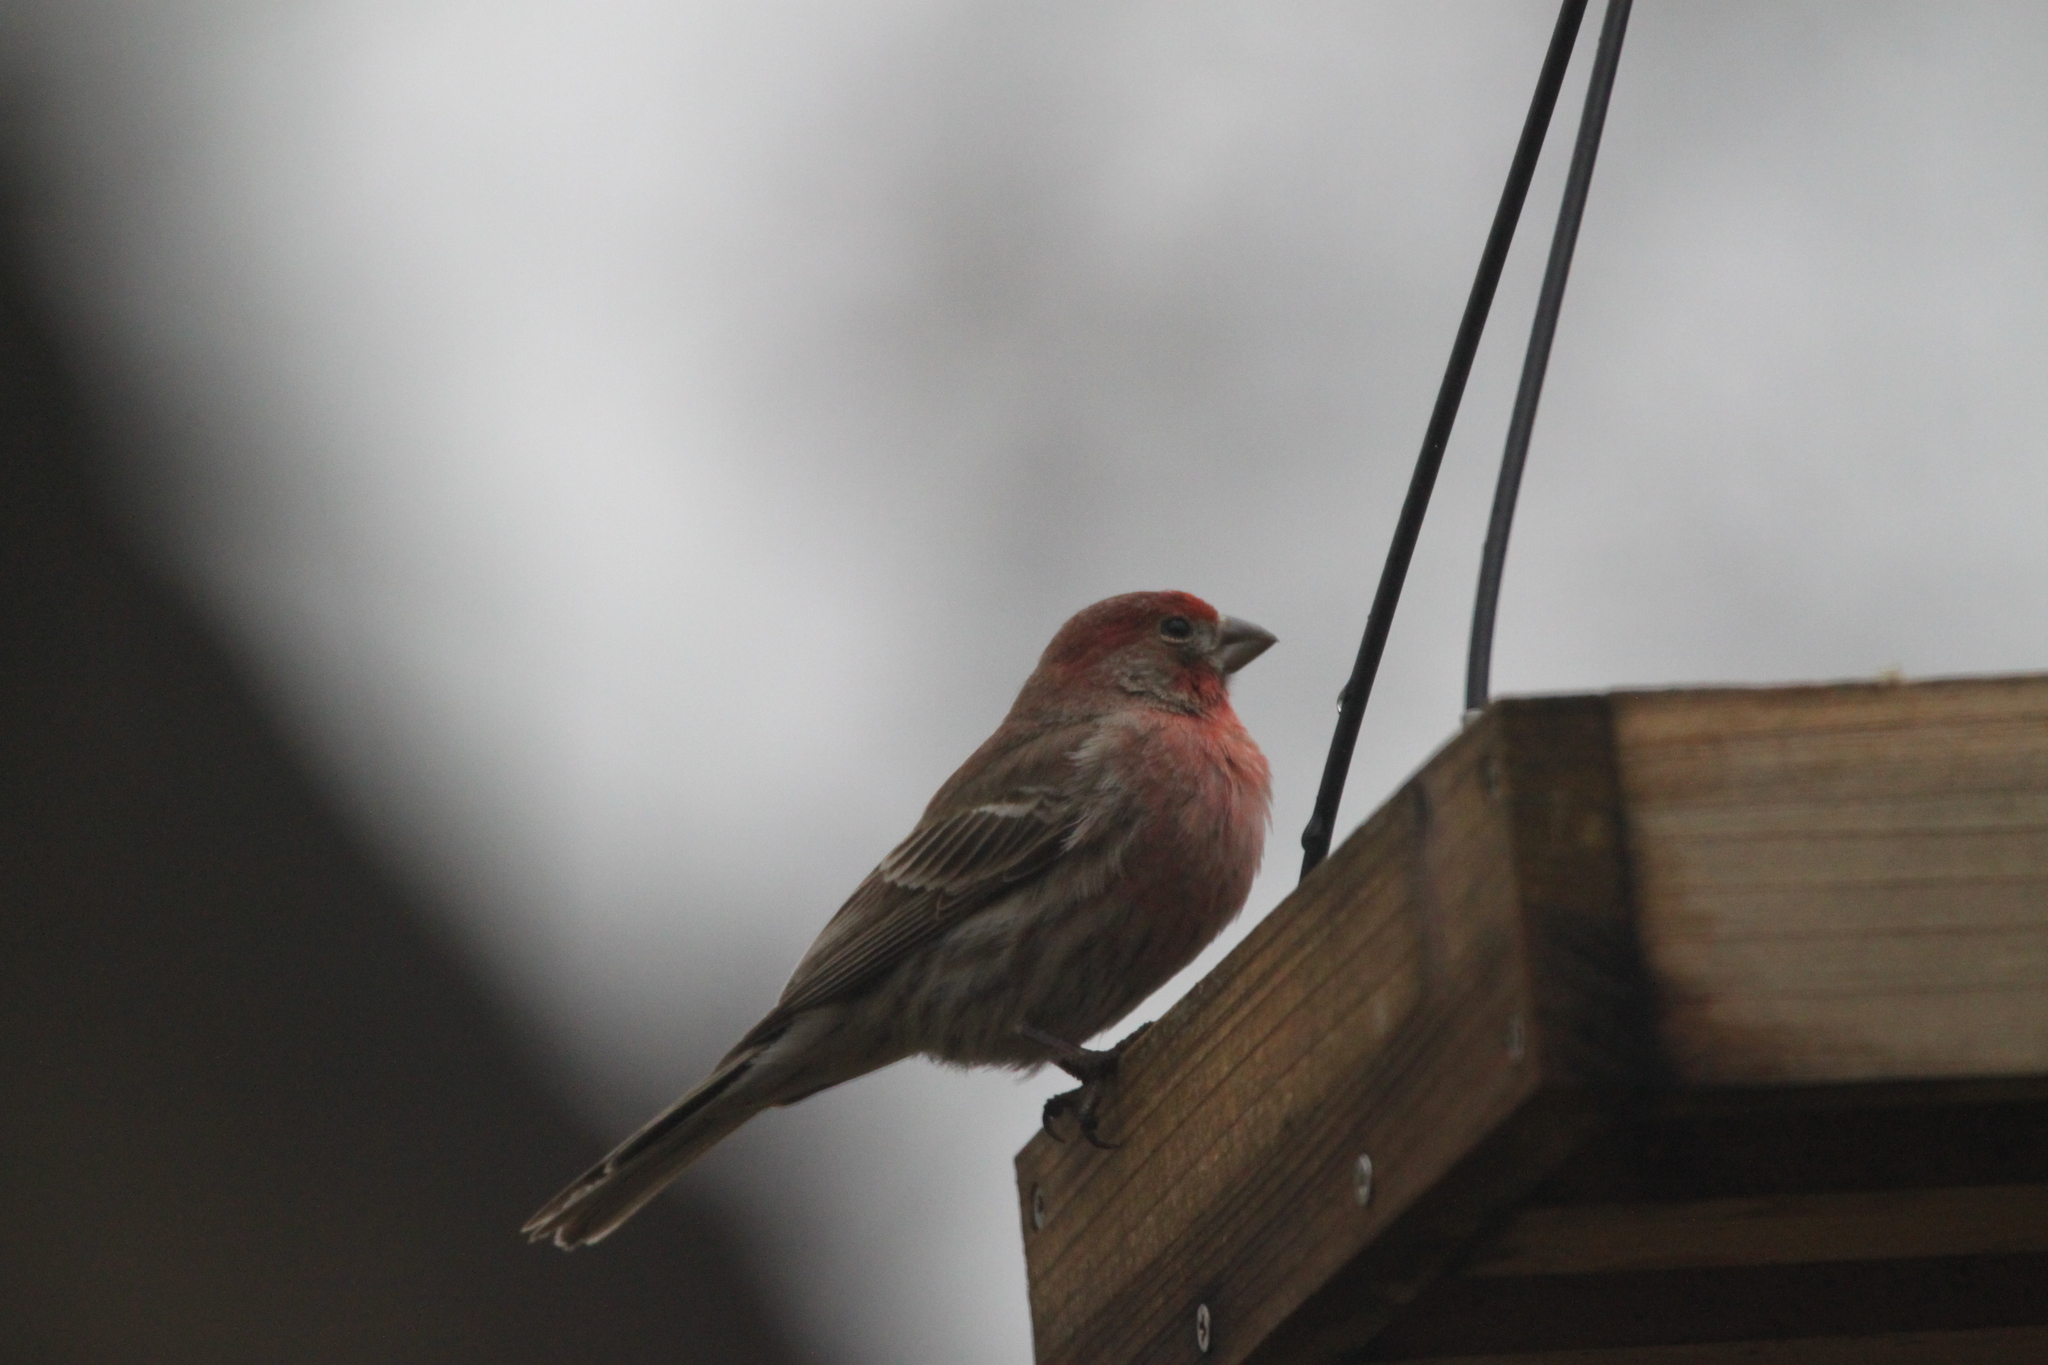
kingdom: Animalia
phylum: Chordata
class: Aves
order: Passeriformes
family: Fringillidae
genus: Haemorhous
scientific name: Haemorhous mexicanus
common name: House finch
